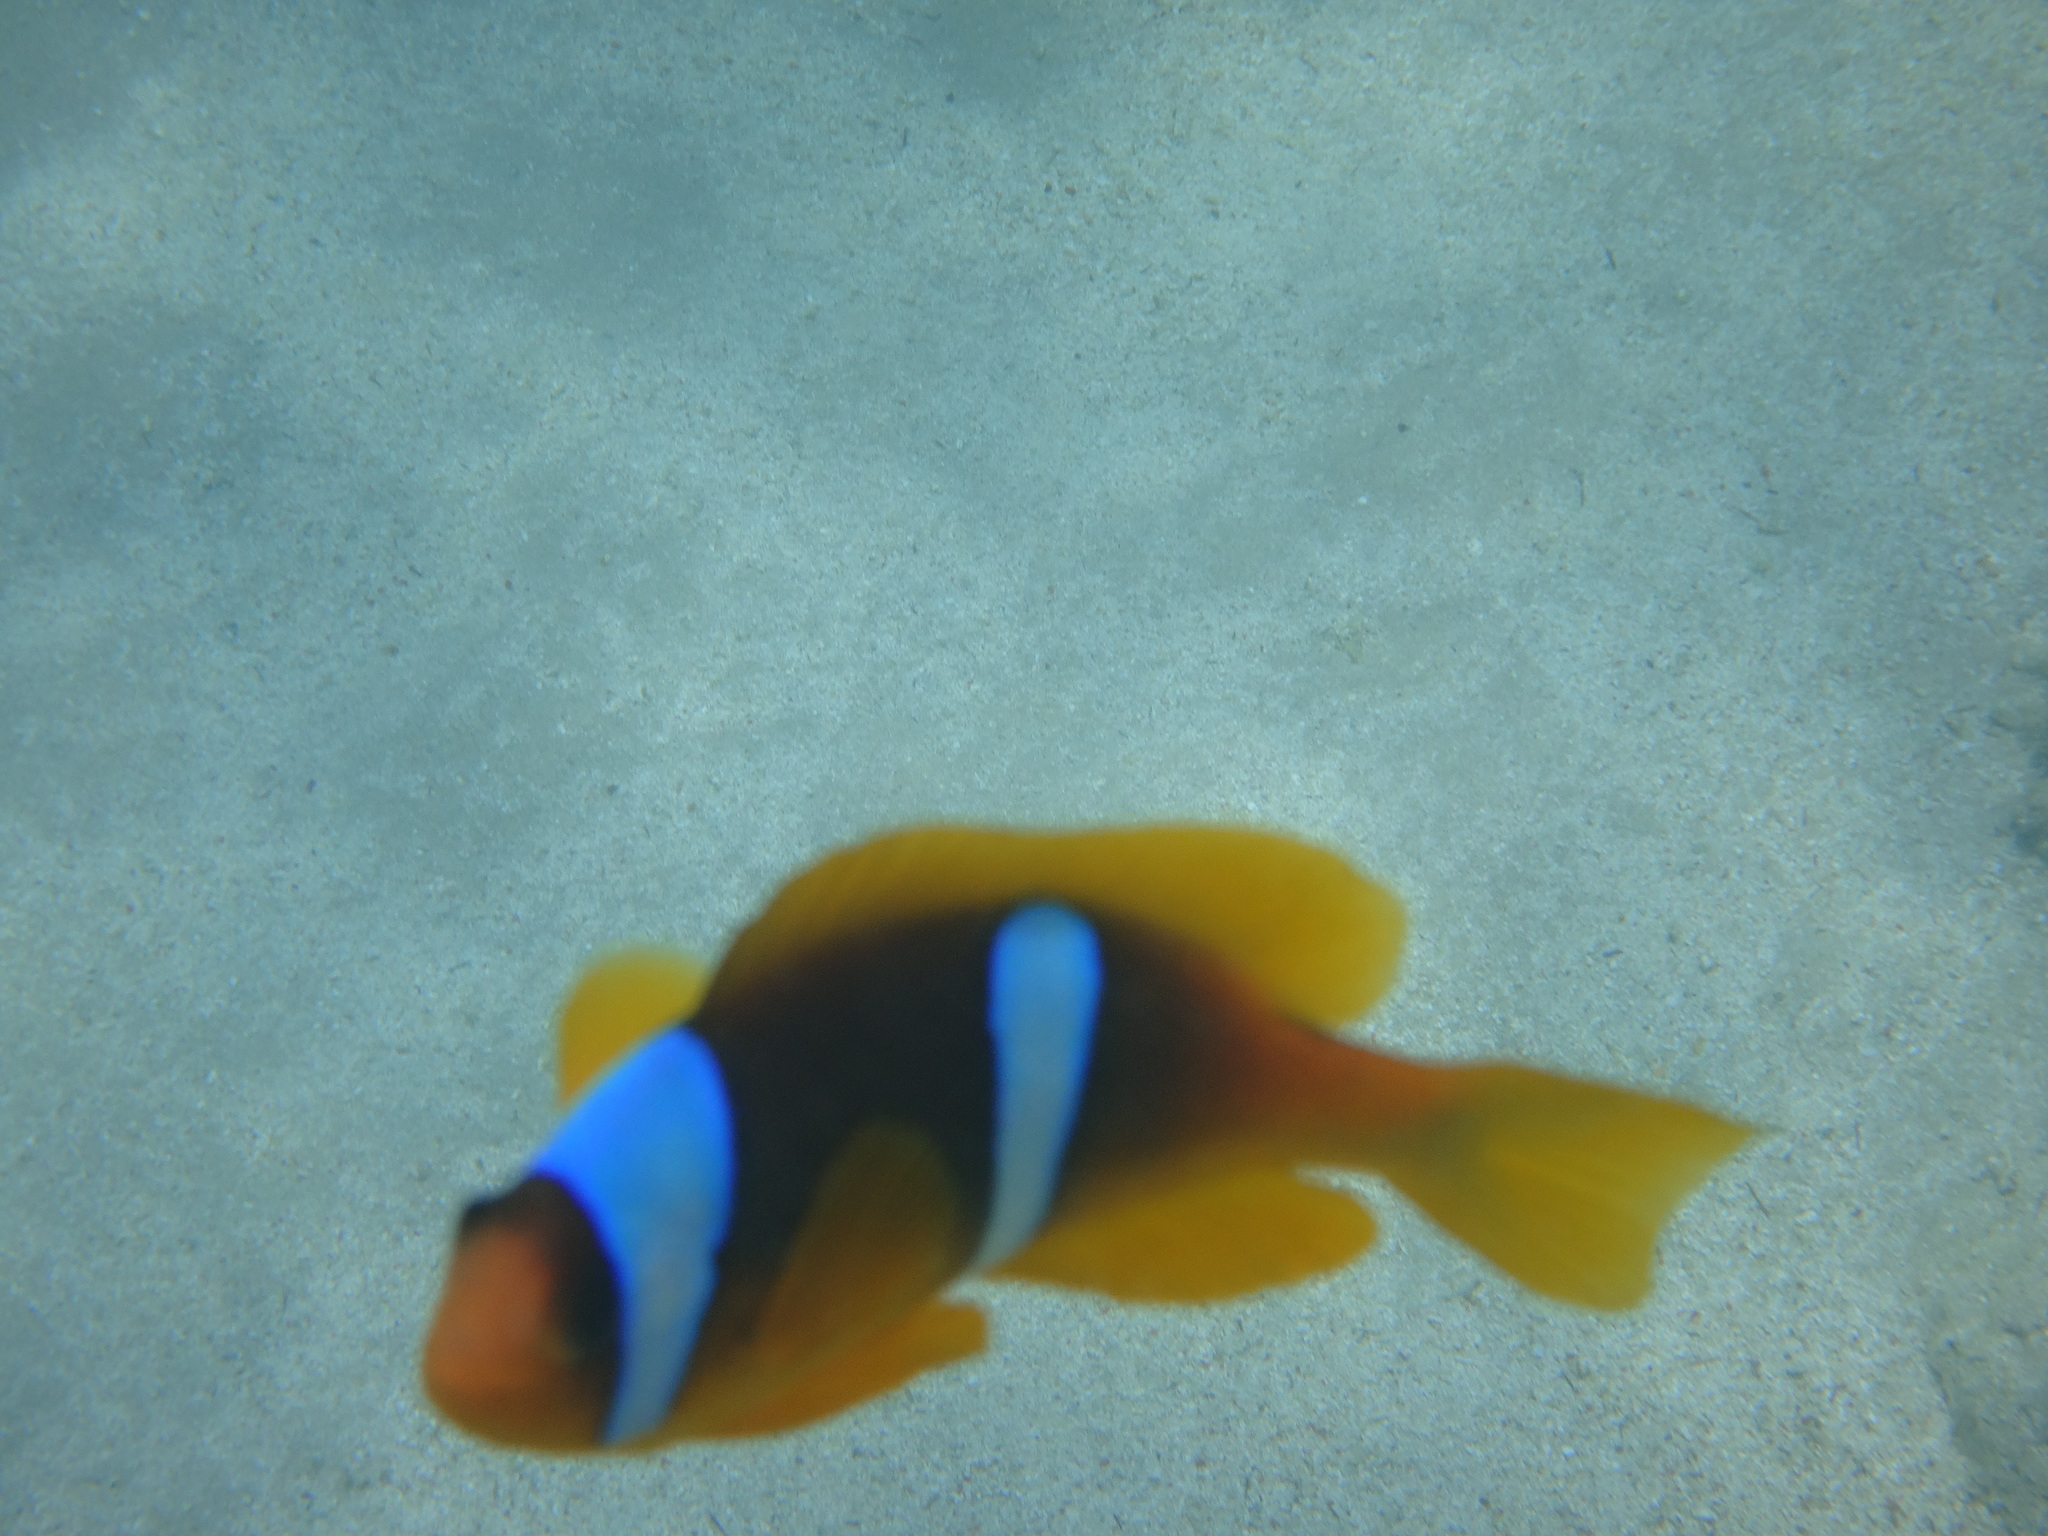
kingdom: Animalia
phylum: Chordata
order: Perciformes
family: Pomacentridae
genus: Amphiprion
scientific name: Amphiprion bicinctus
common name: Two-banded anemonefish
